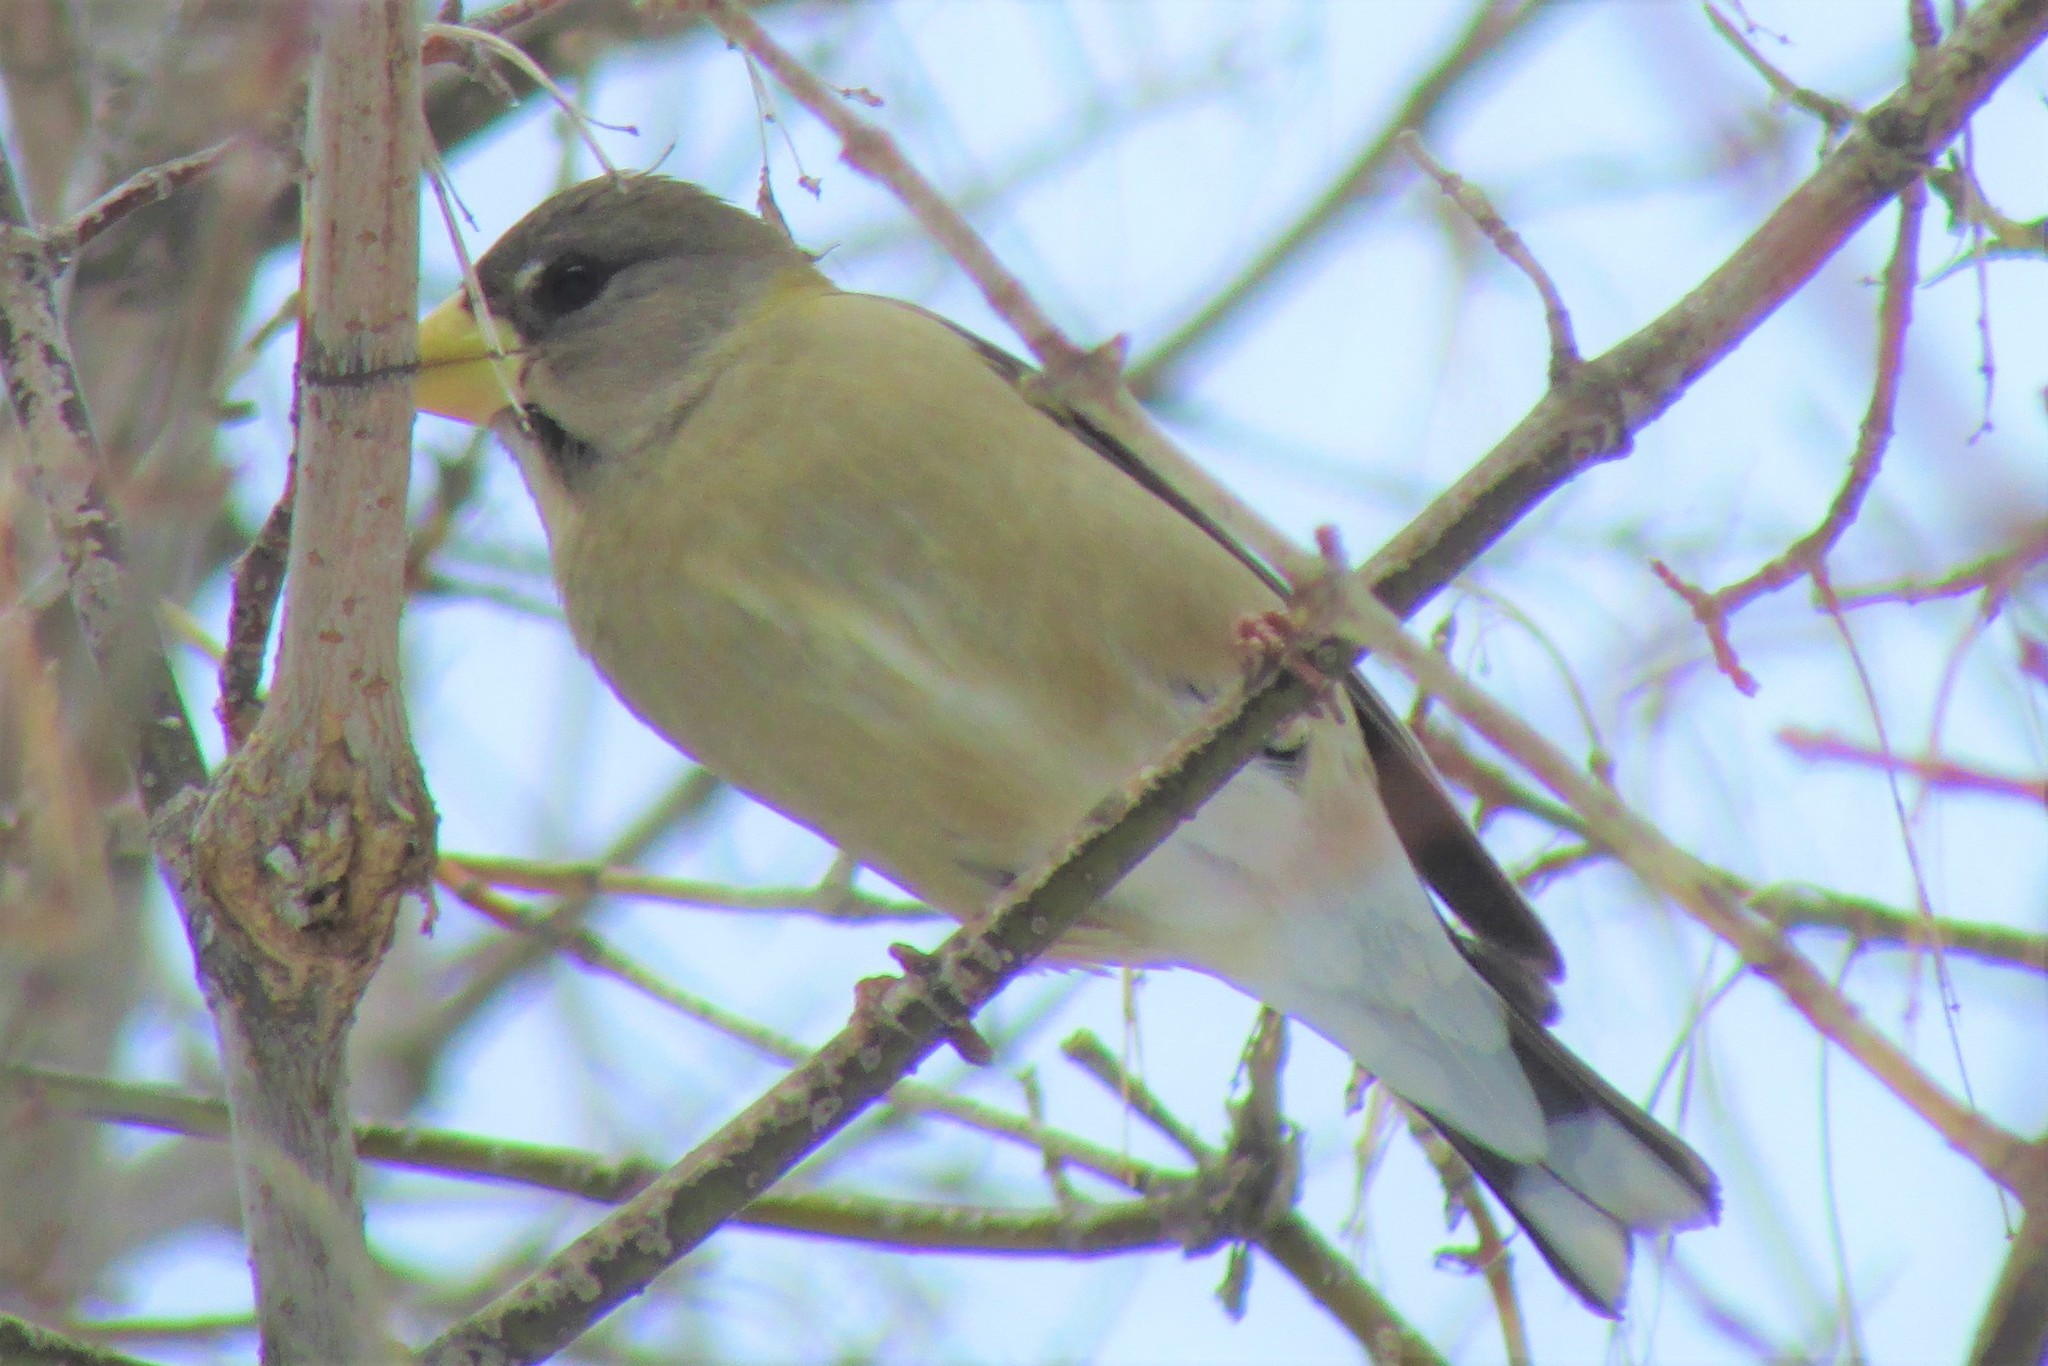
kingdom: Animalia
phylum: Chordata
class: Aves
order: Passeriformes
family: Fringillidae
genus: Hesperiphona
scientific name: Hesperiphona vespertina
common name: Evening grosbeak
